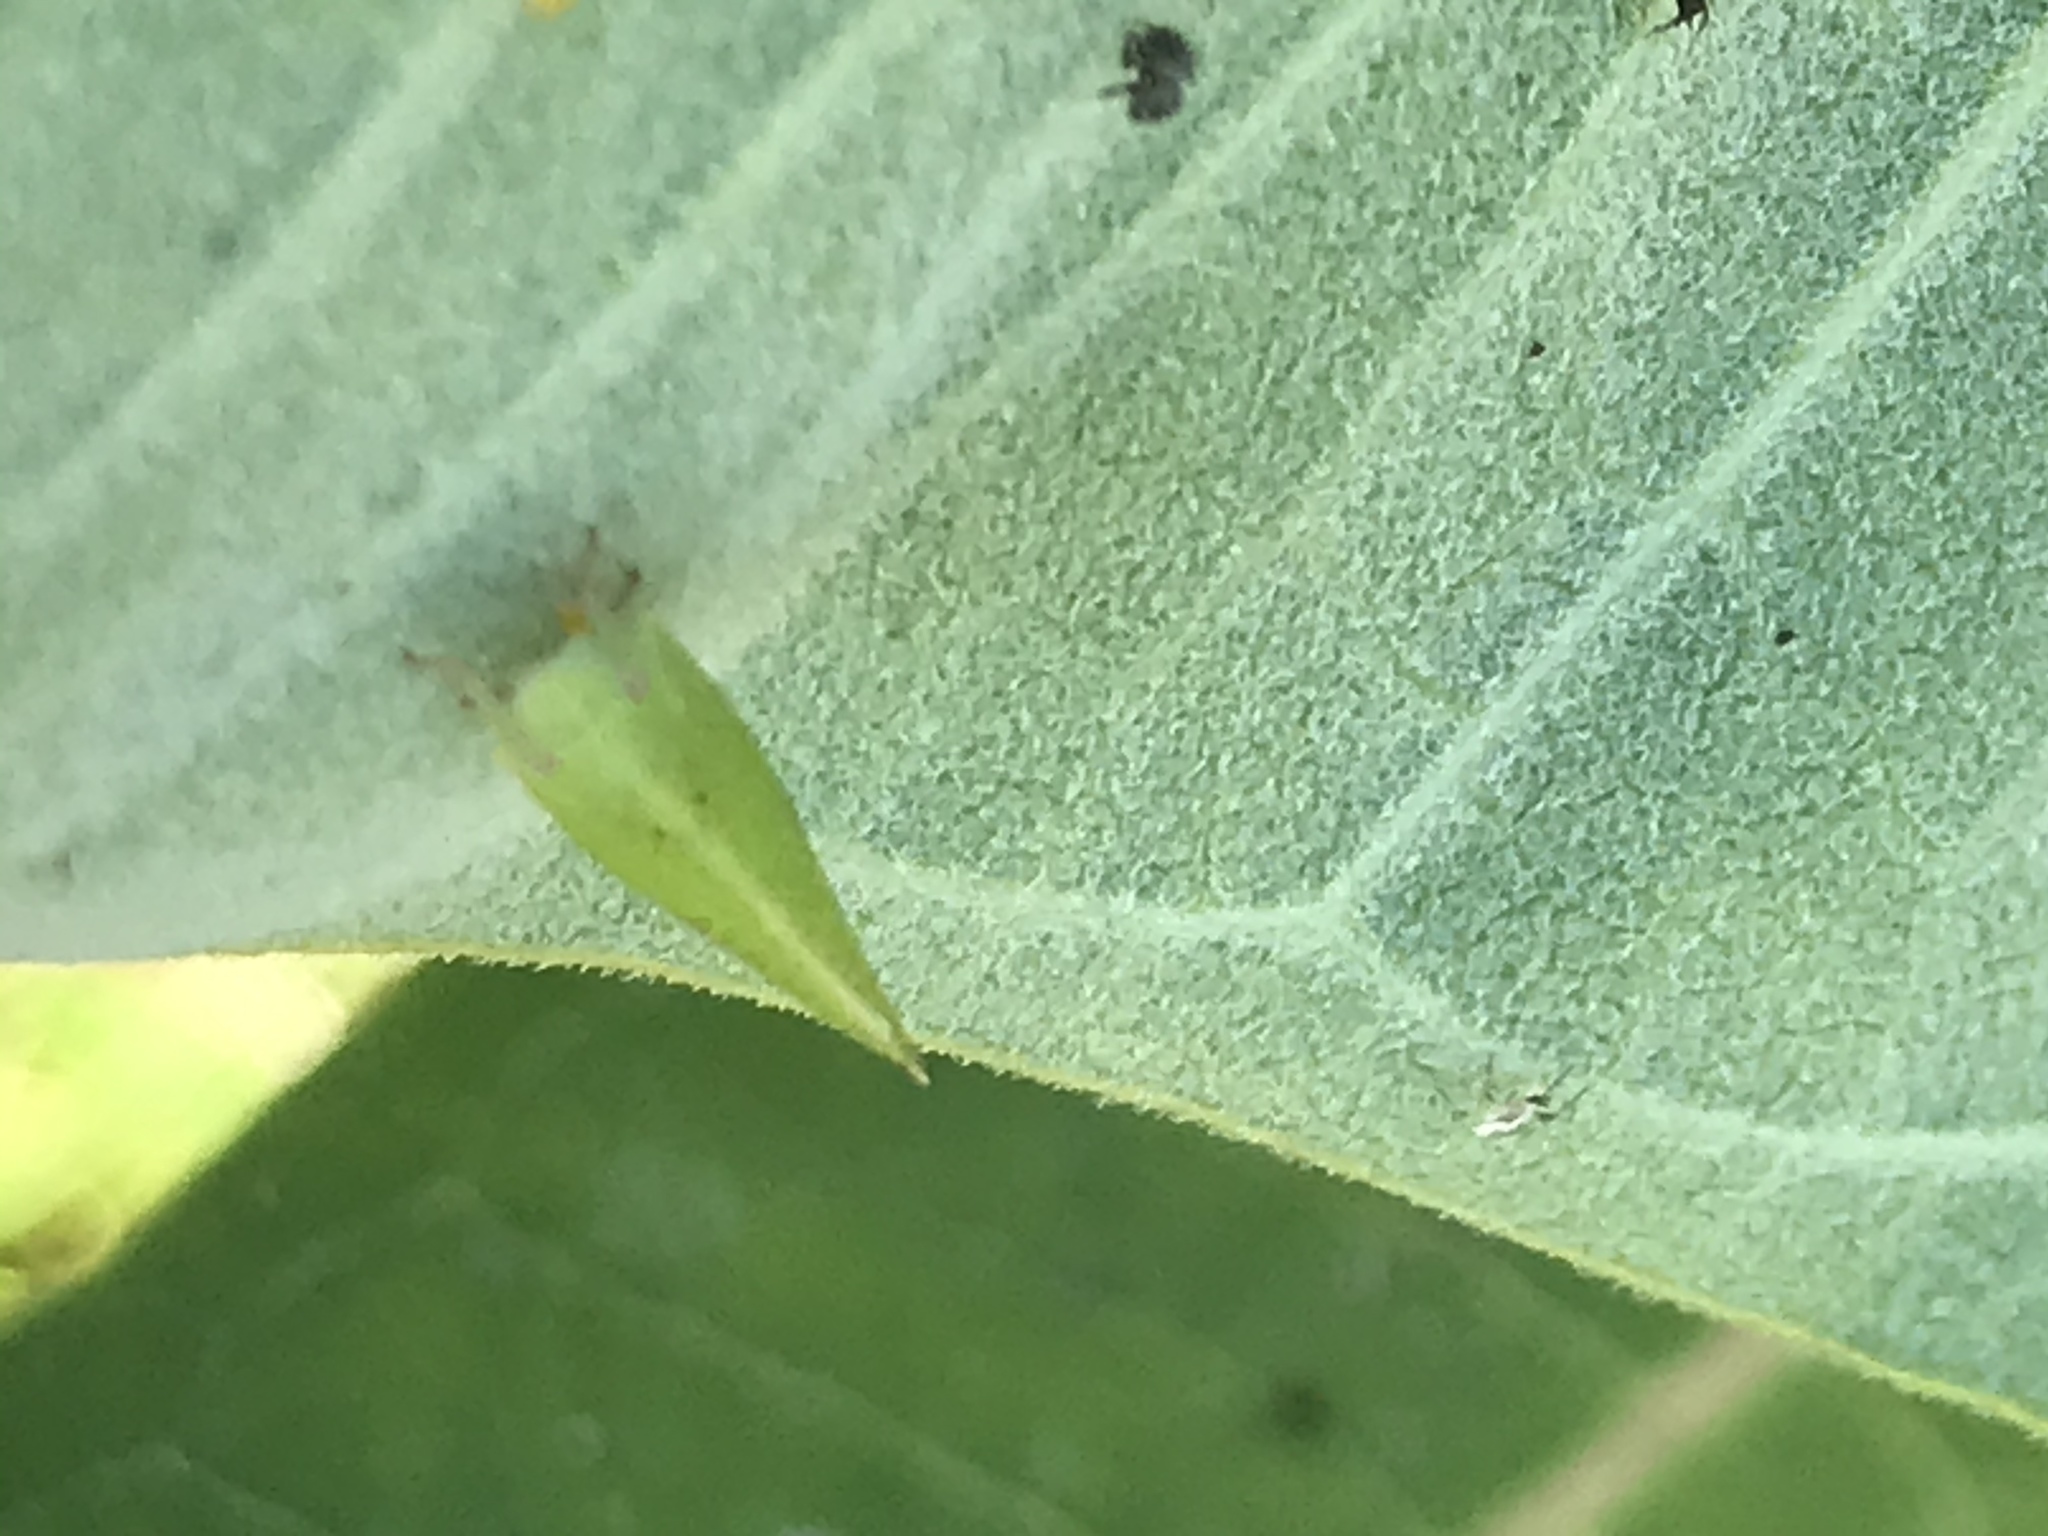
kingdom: Animalia
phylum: Arthropoda
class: Insecta
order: Hemiptera
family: Acanaloniidae
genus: Acanalonia
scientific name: Acanalonia conica
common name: Green cone-headed planthopper
